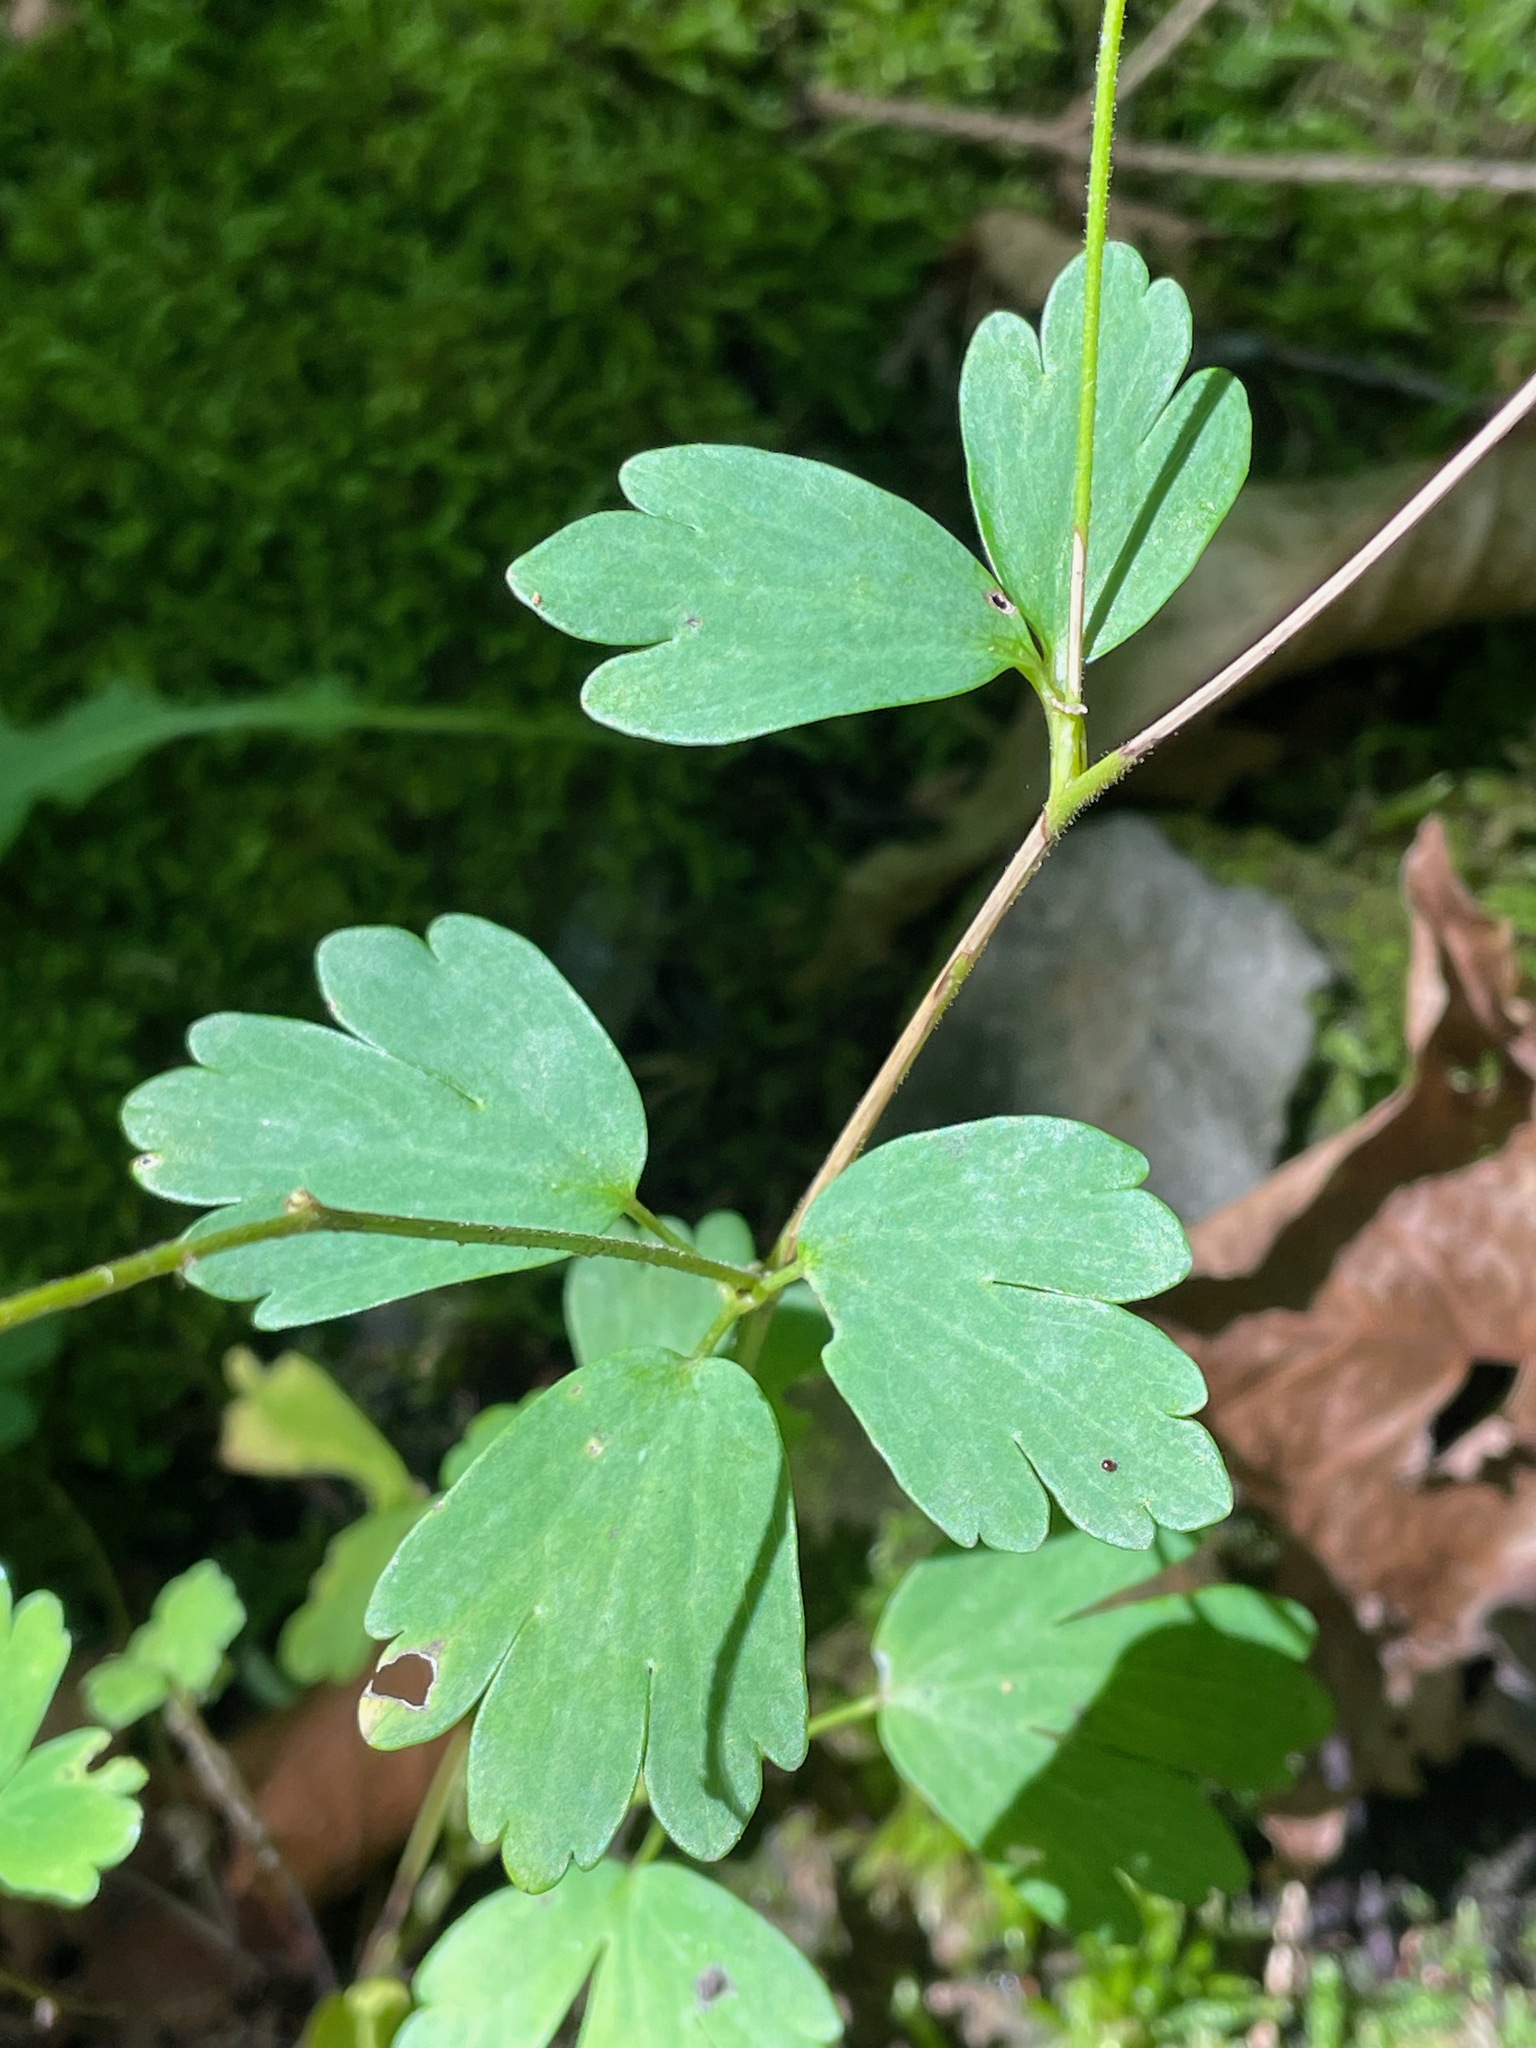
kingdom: Plantae
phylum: Tracheophyta
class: Magnoliopsida
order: Ranunculales
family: Ranunculaceae
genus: Aquilegia
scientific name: Aquilegia canadensis
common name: American columbine
